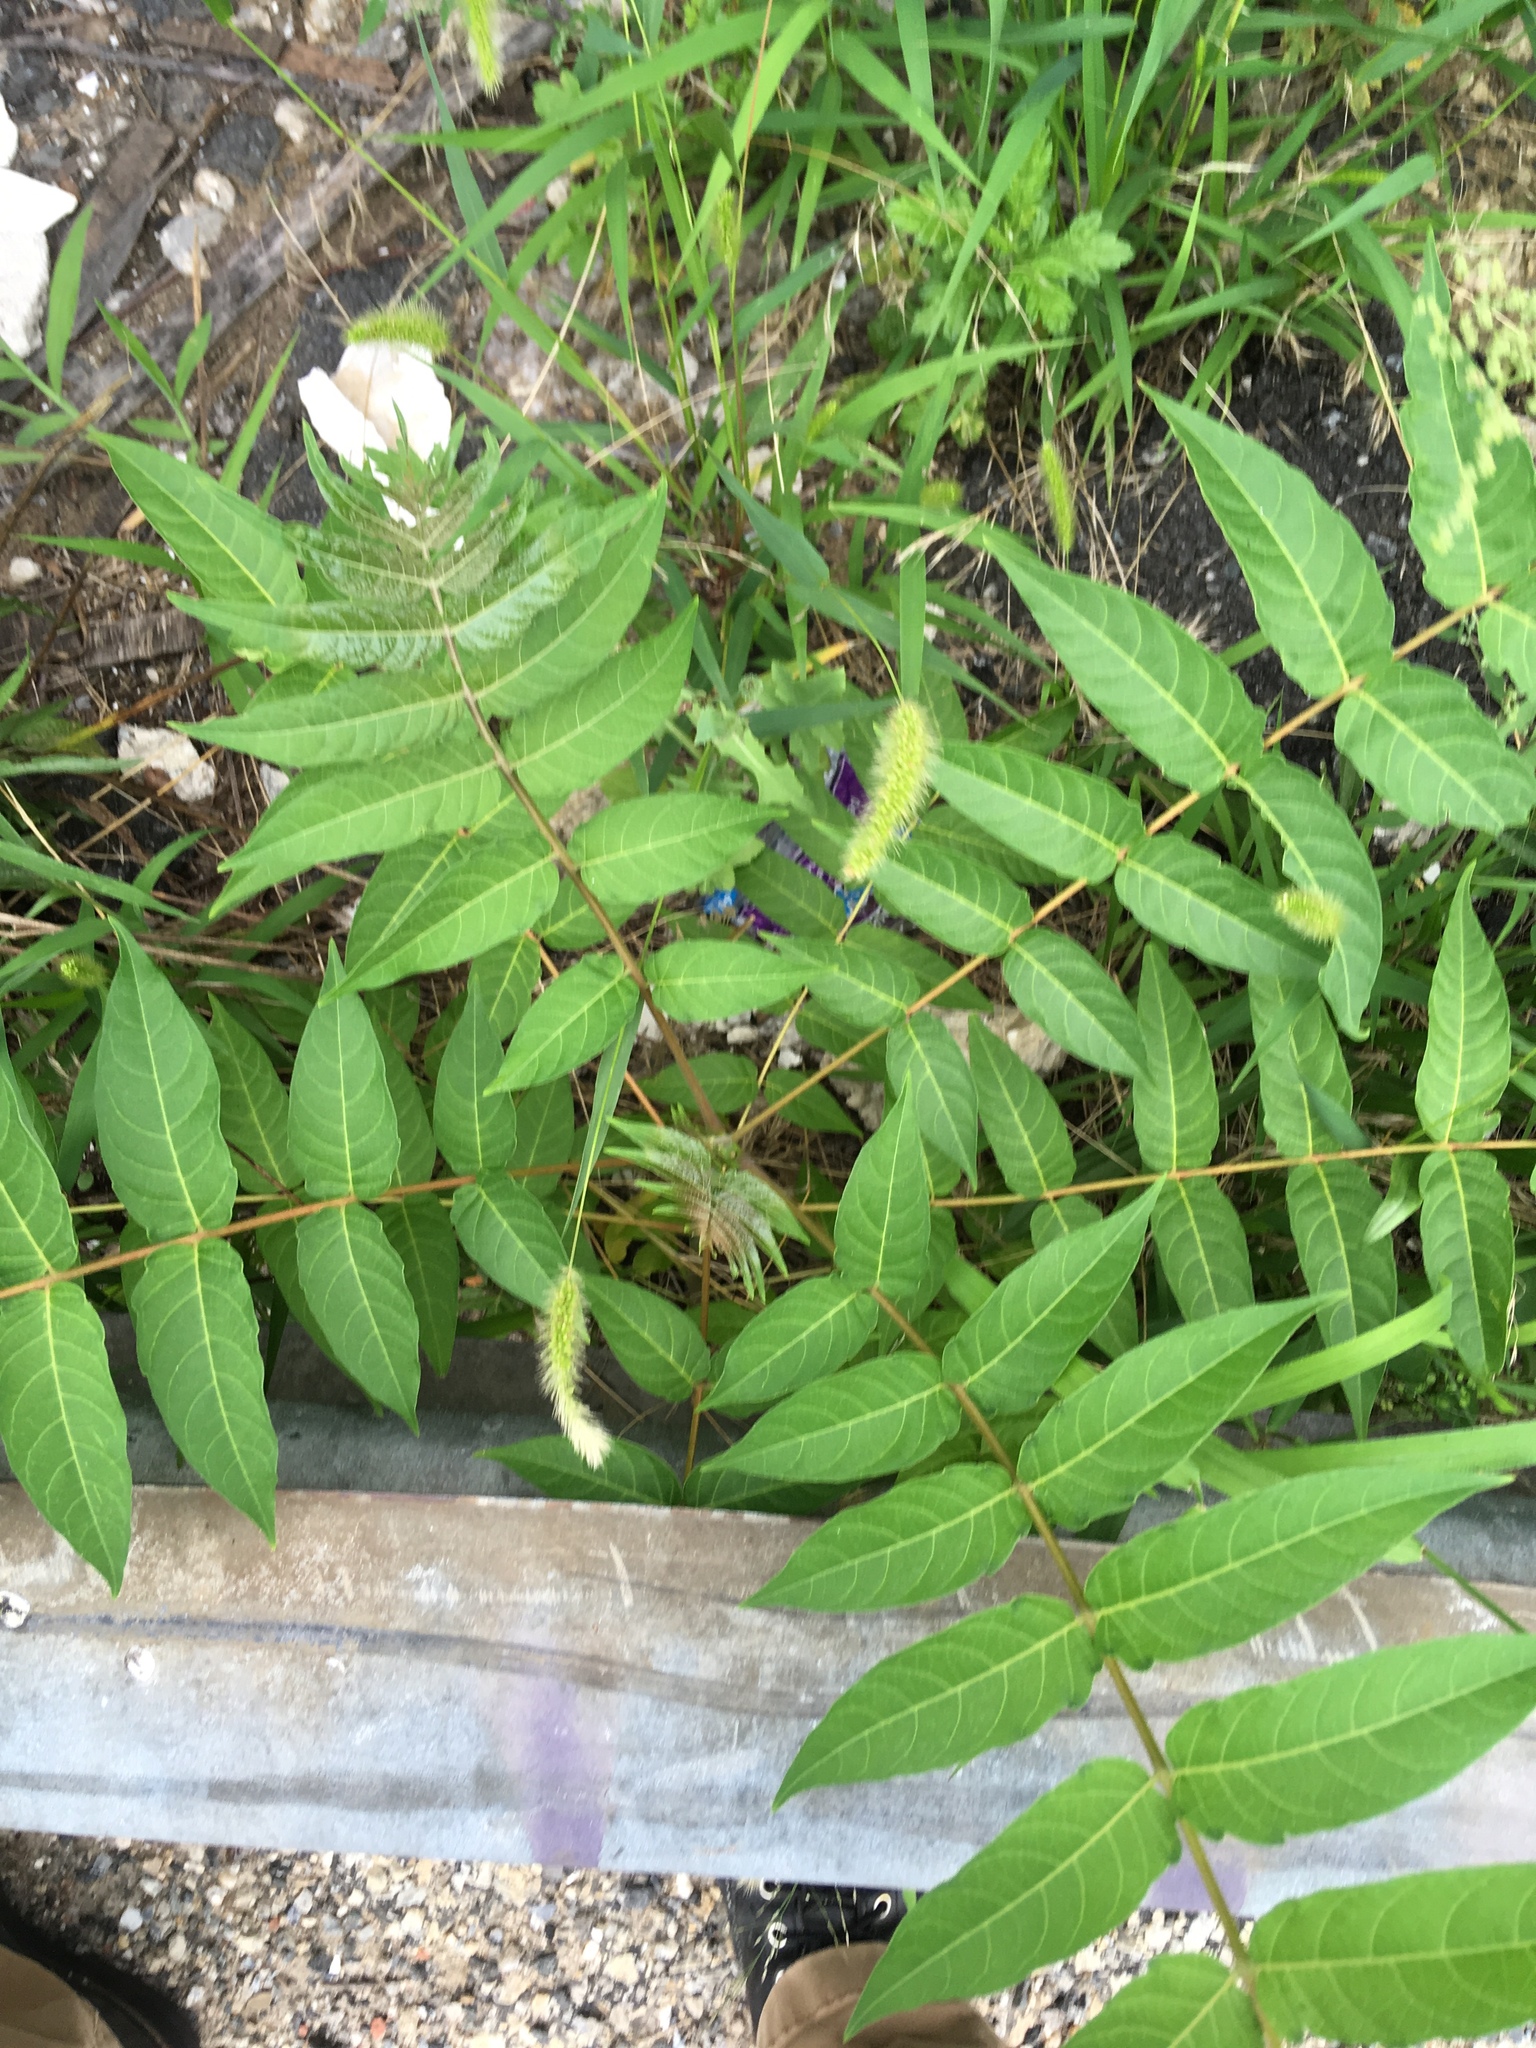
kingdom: Plantae
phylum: Tracheophyta
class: Magnoliopsida
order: Sapindales
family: Simaroubaceae
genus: Ailanthus
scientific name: Ailanthus altissima
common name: Tree-of-heaven
